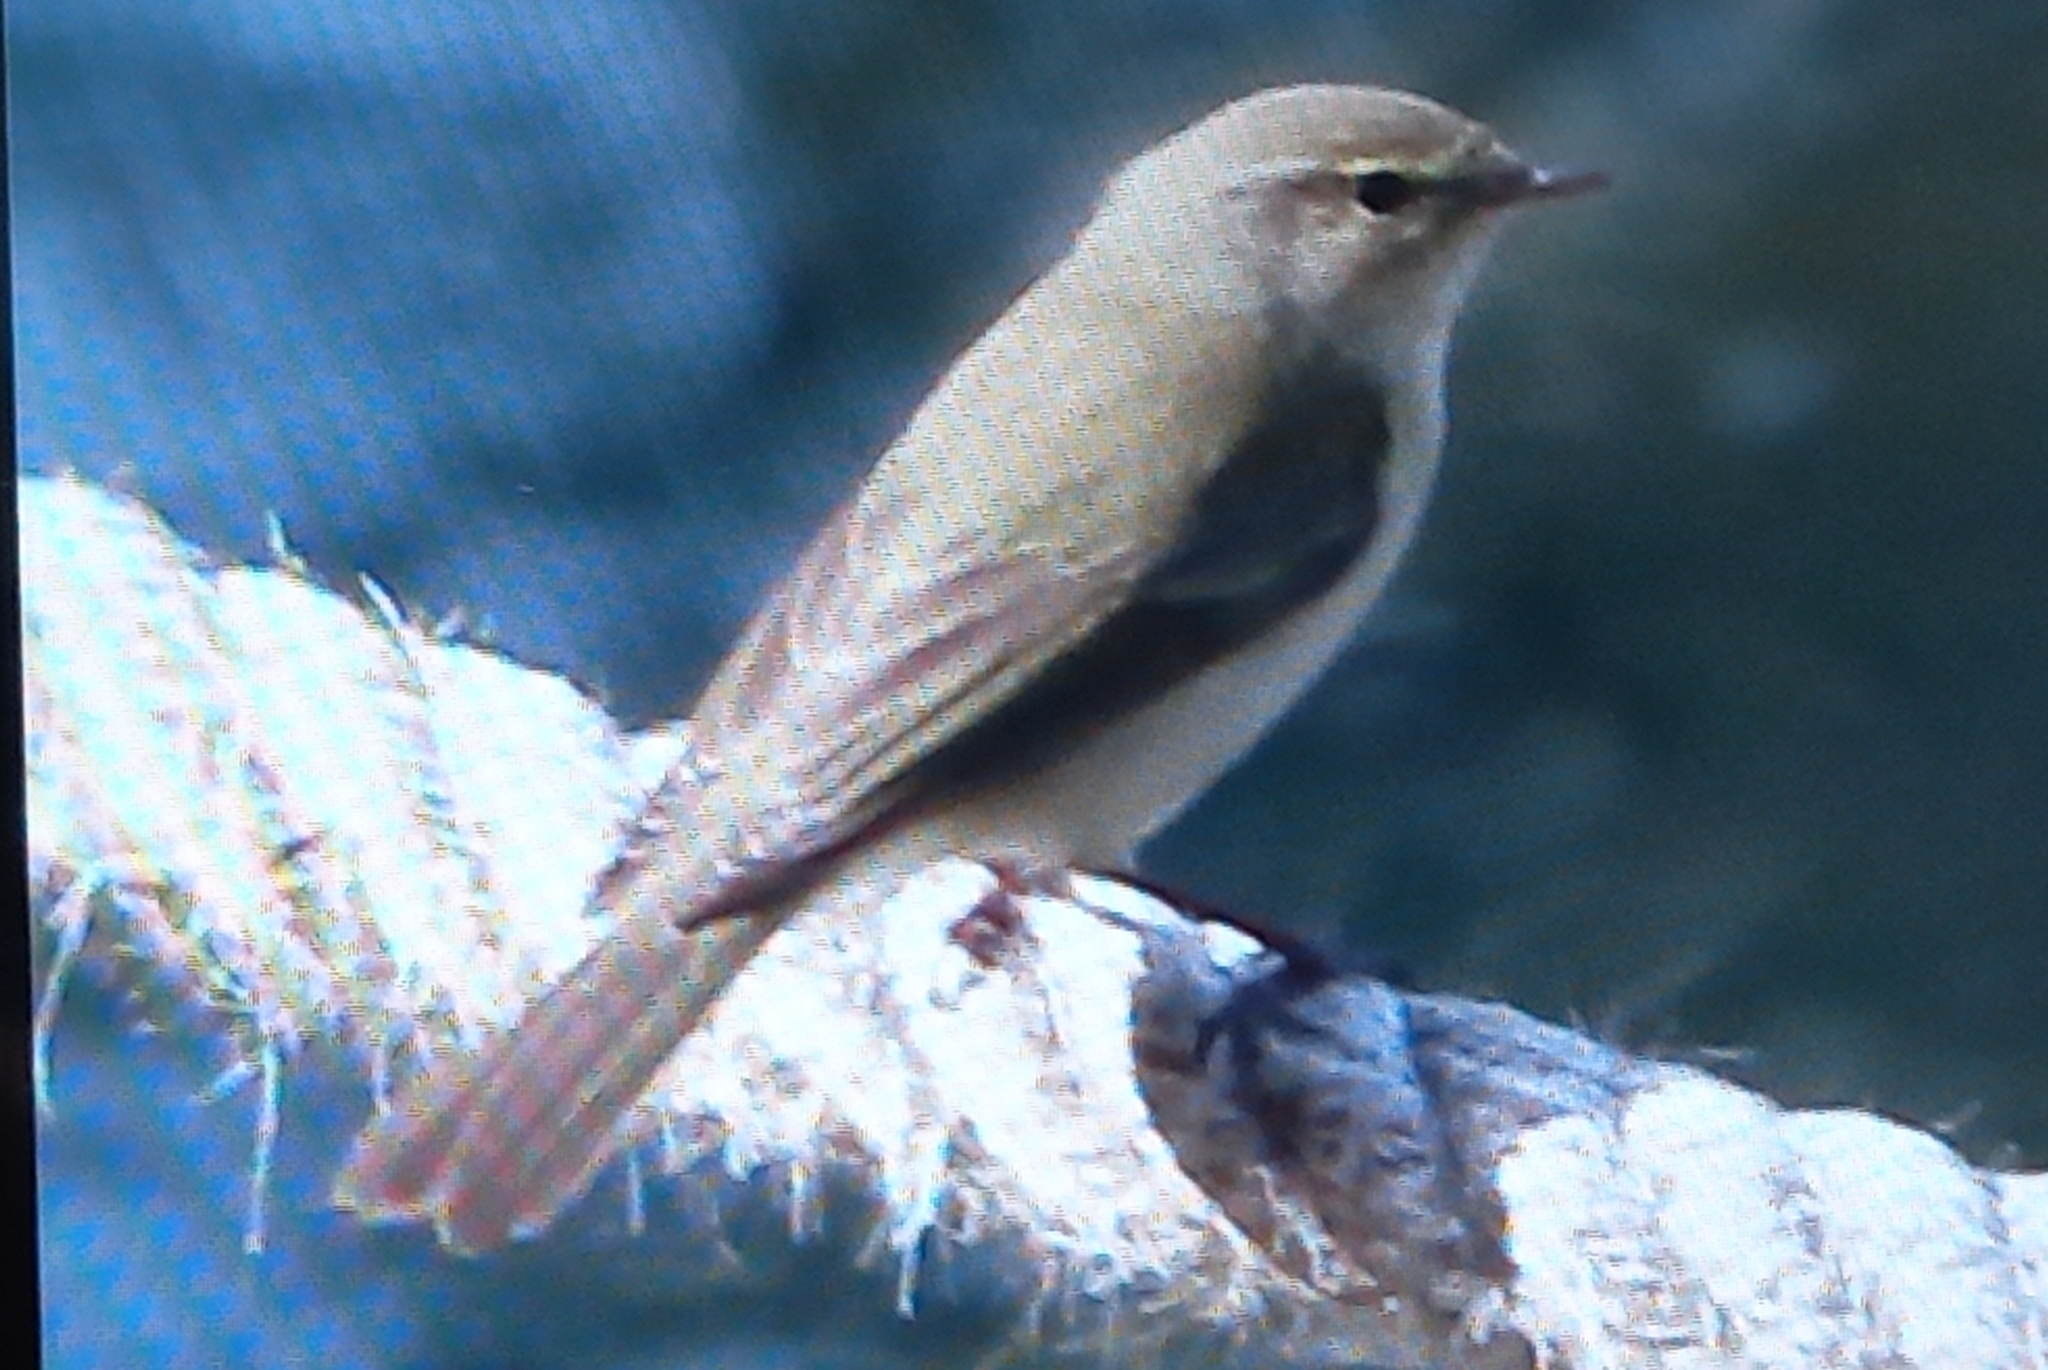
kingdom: Animalia
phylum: Chordata
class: Aves
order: Passeriformes
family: Phylloscopidae
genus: Phylloscopus
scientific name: Phylloscopus collybita
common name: Common chiffchaff
